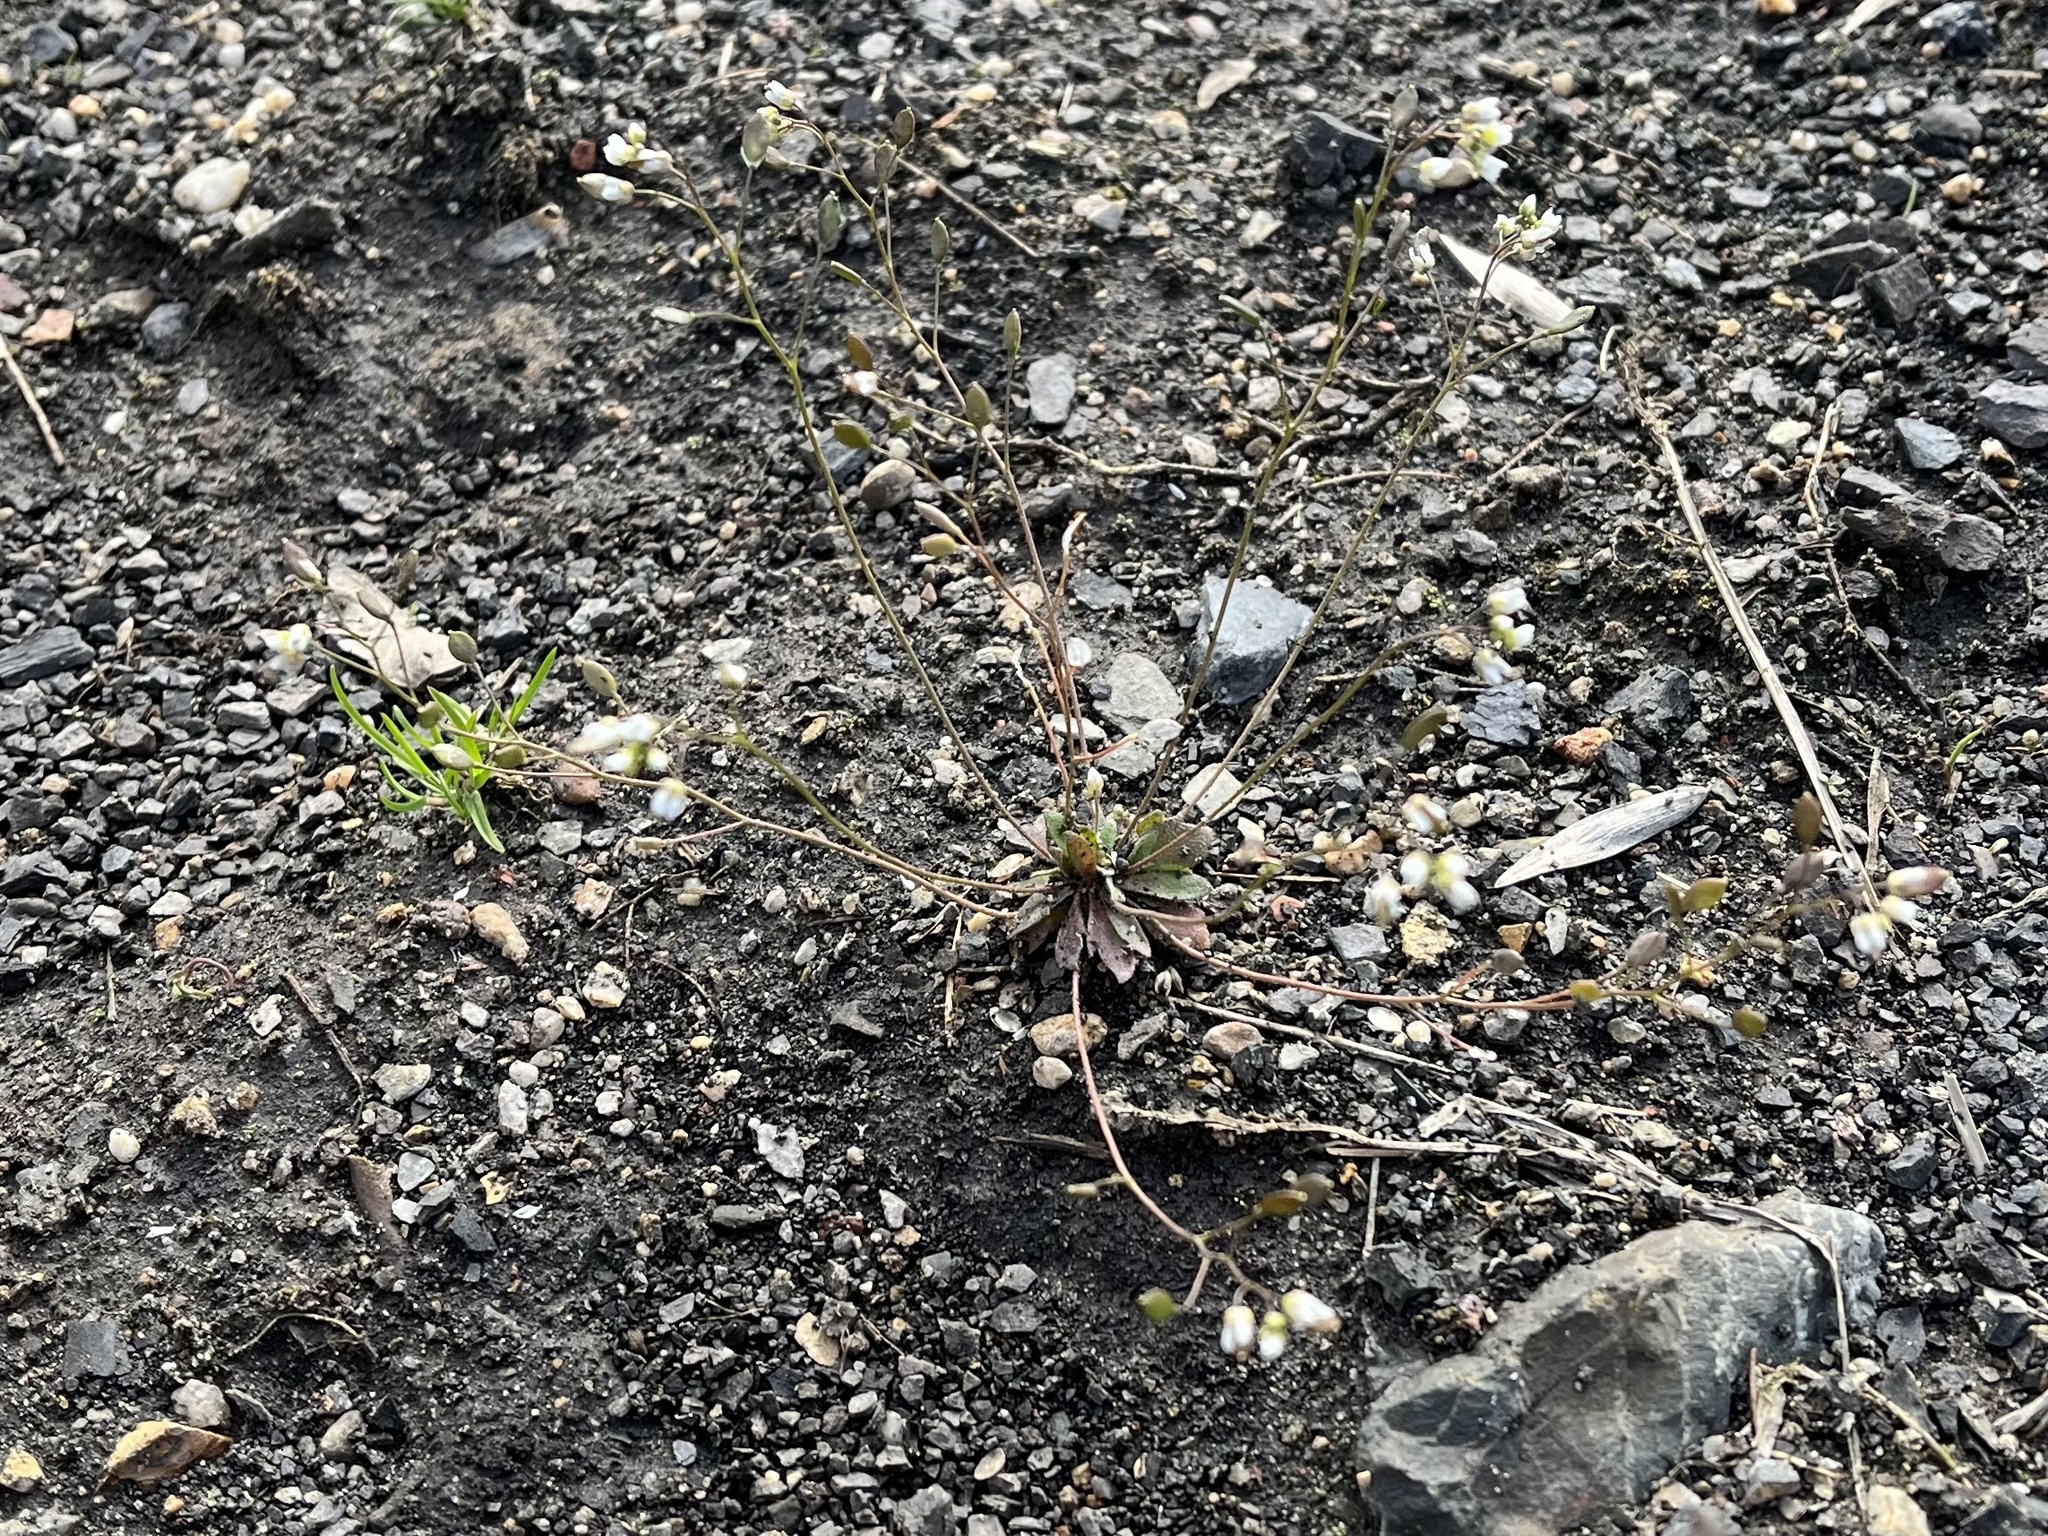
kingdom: Plantae
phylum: Tracheophyta
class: Magnoliopsida
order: Brassicales
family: Brassicaceae
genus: Draba
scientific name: Draba verna
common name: Spring draba
